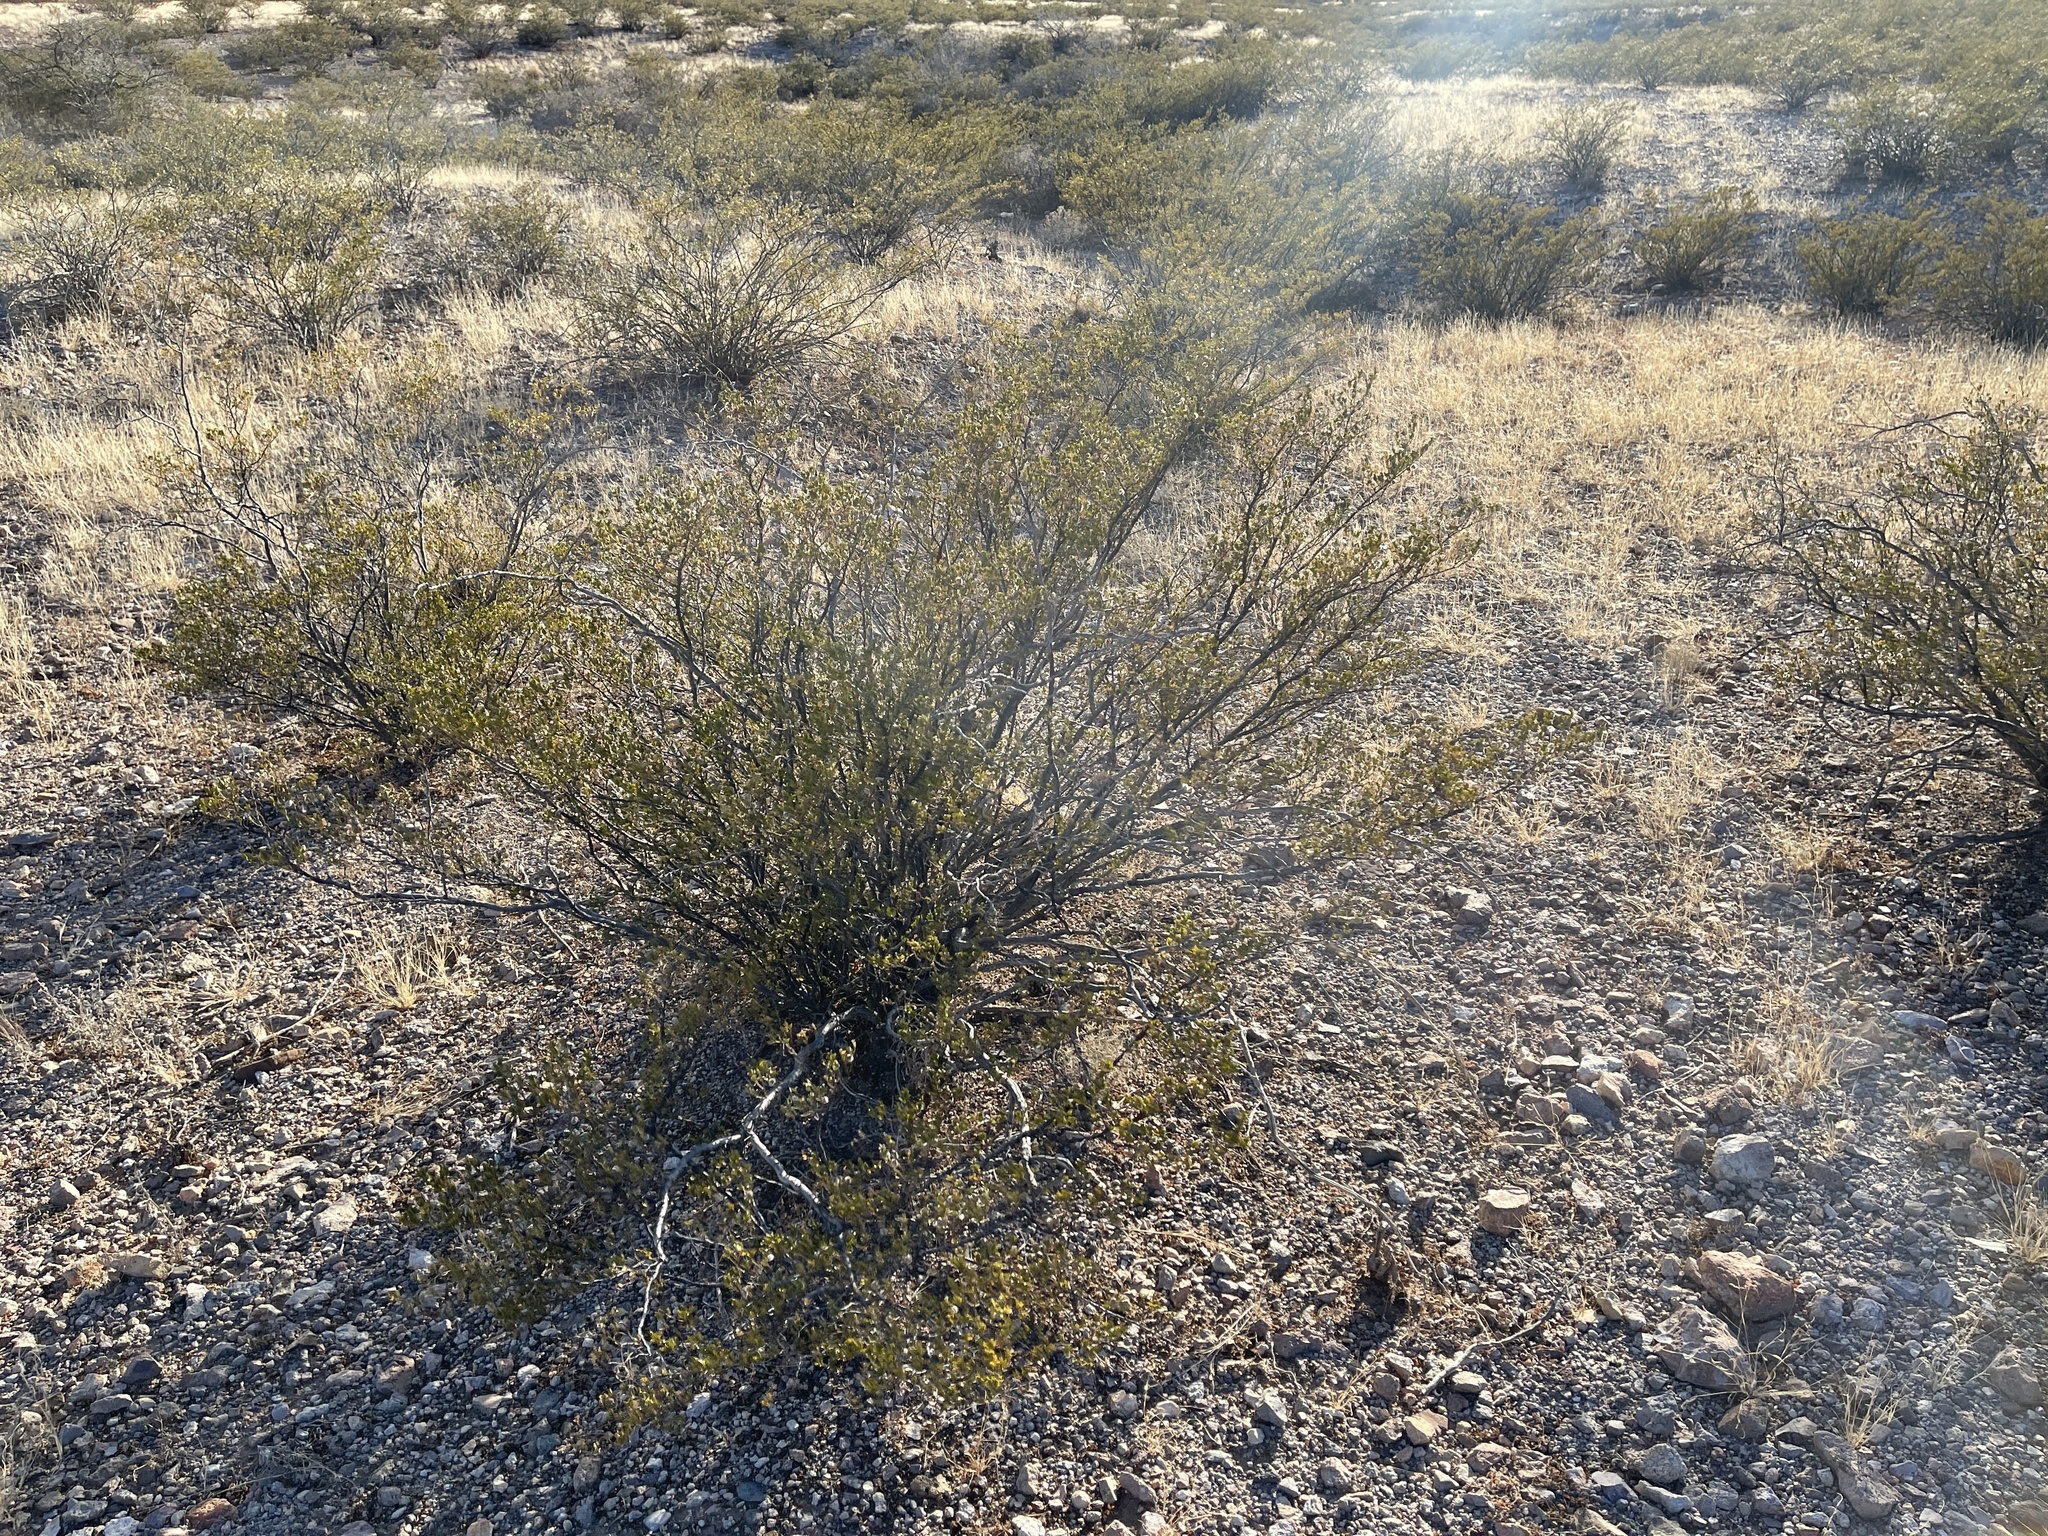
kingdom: Plantae
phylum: Tracheophyta
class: Magnoliopsida
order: Zygophyllales
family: Zygophyllaceae
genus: Larrea
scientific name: Larrea tridentata
